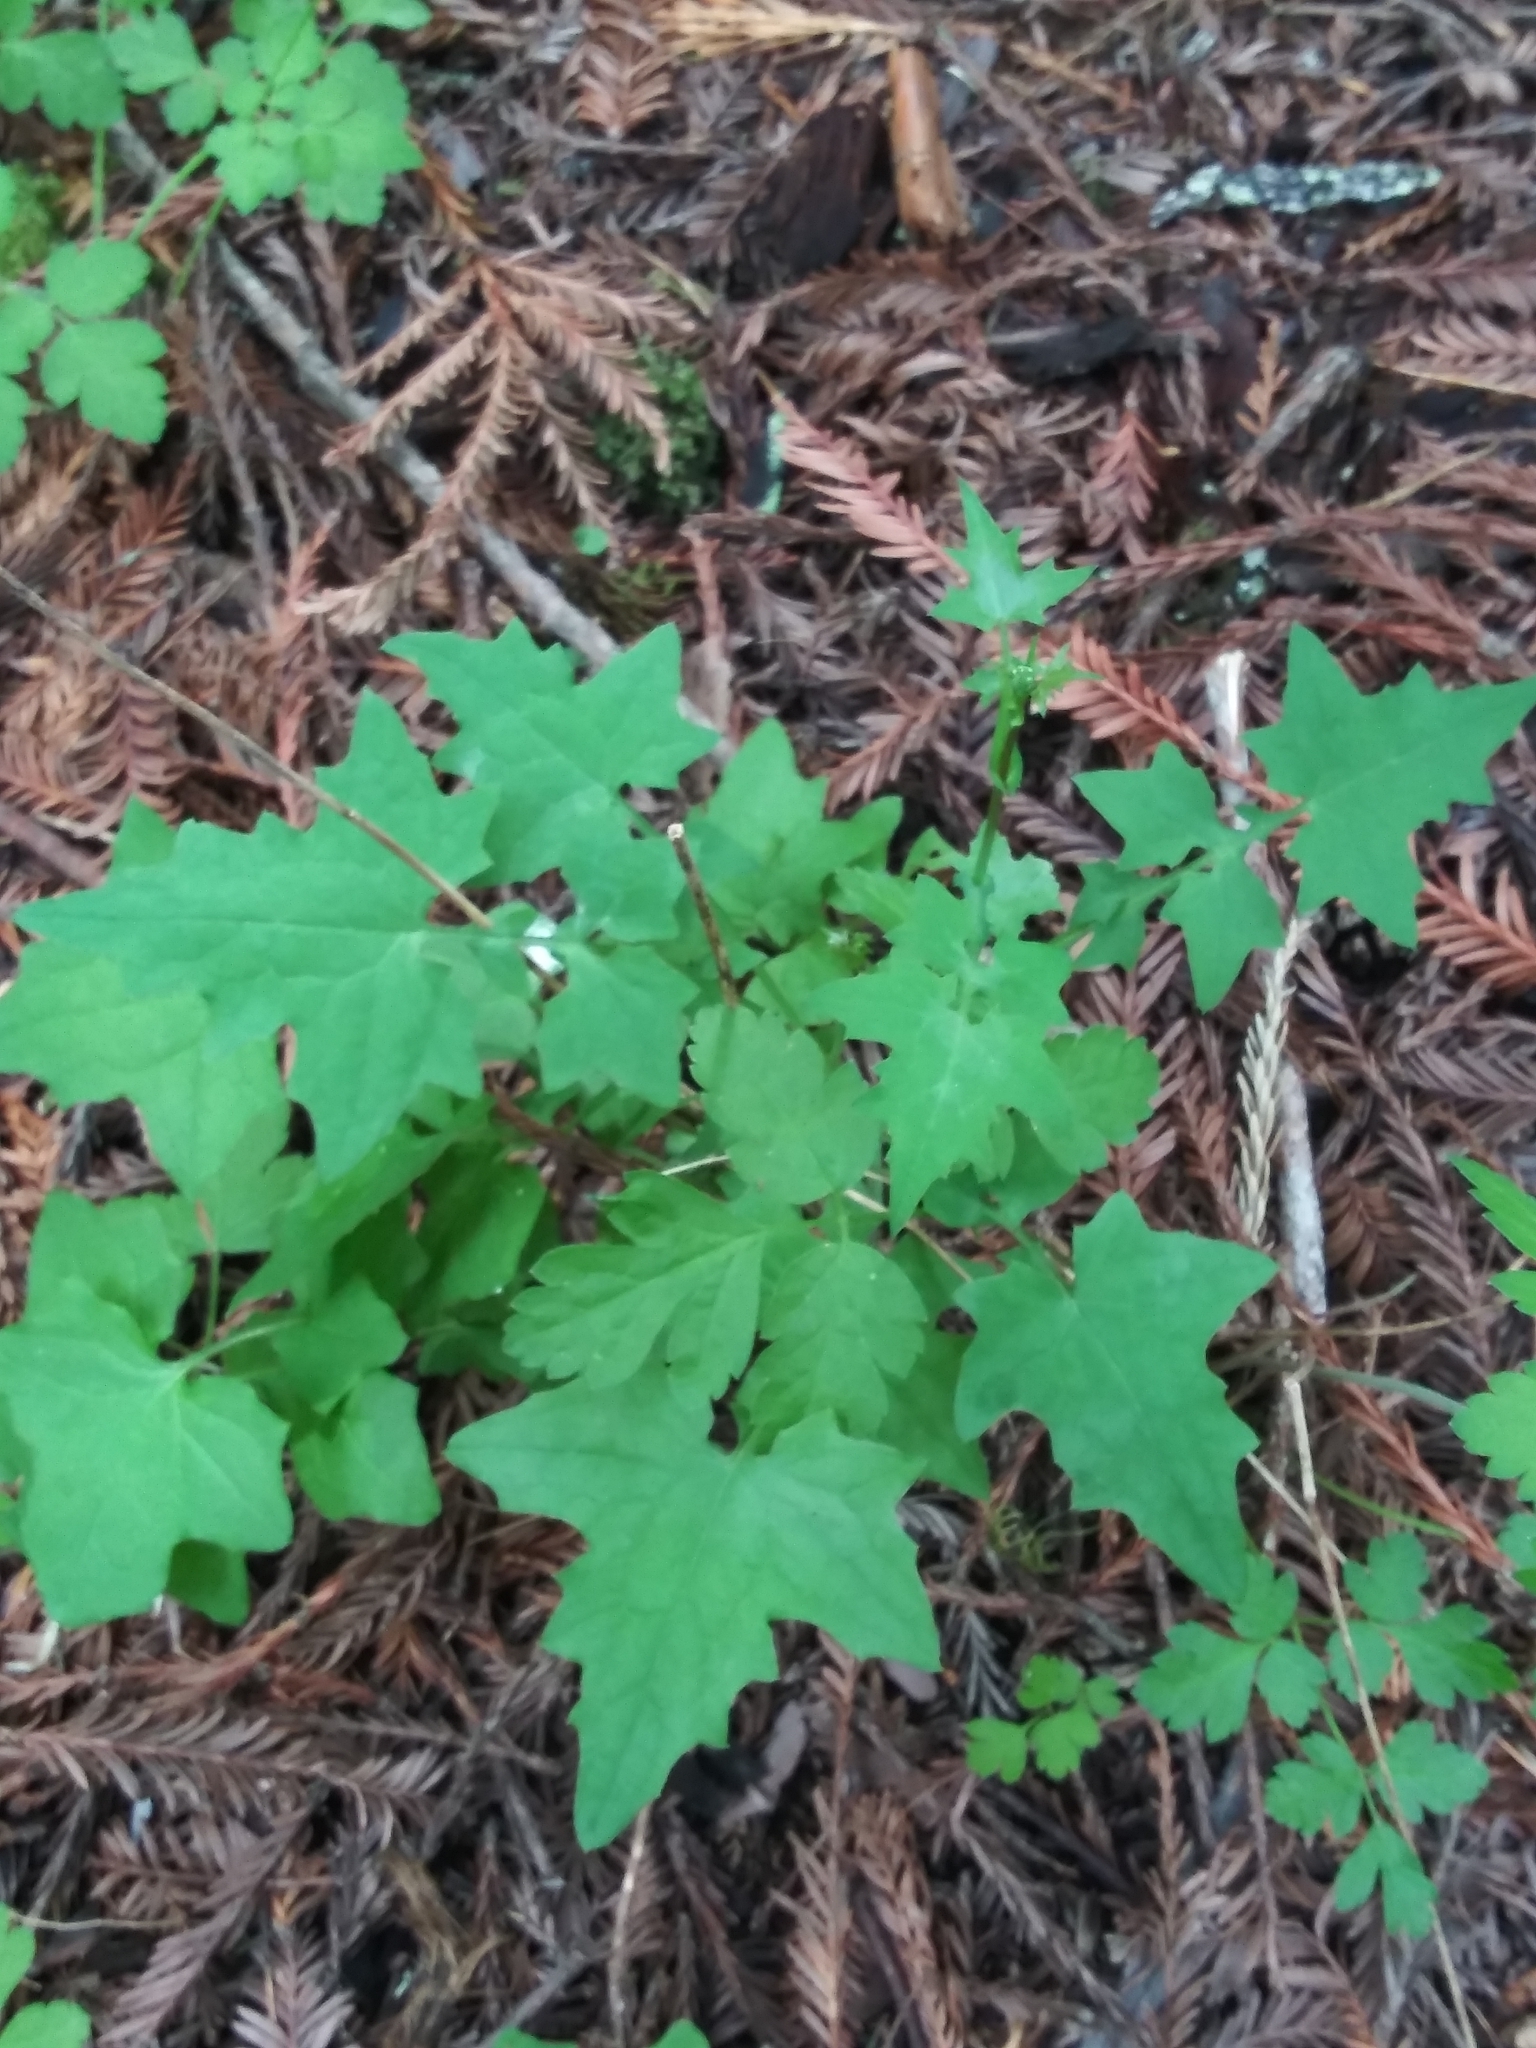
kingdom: Plantae
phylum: Tracheophyta
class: Magnoliopsida
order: Asterales
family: Asteraceae
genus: Mycelis
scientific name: Mycelis muralis
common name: Wall lettuce
